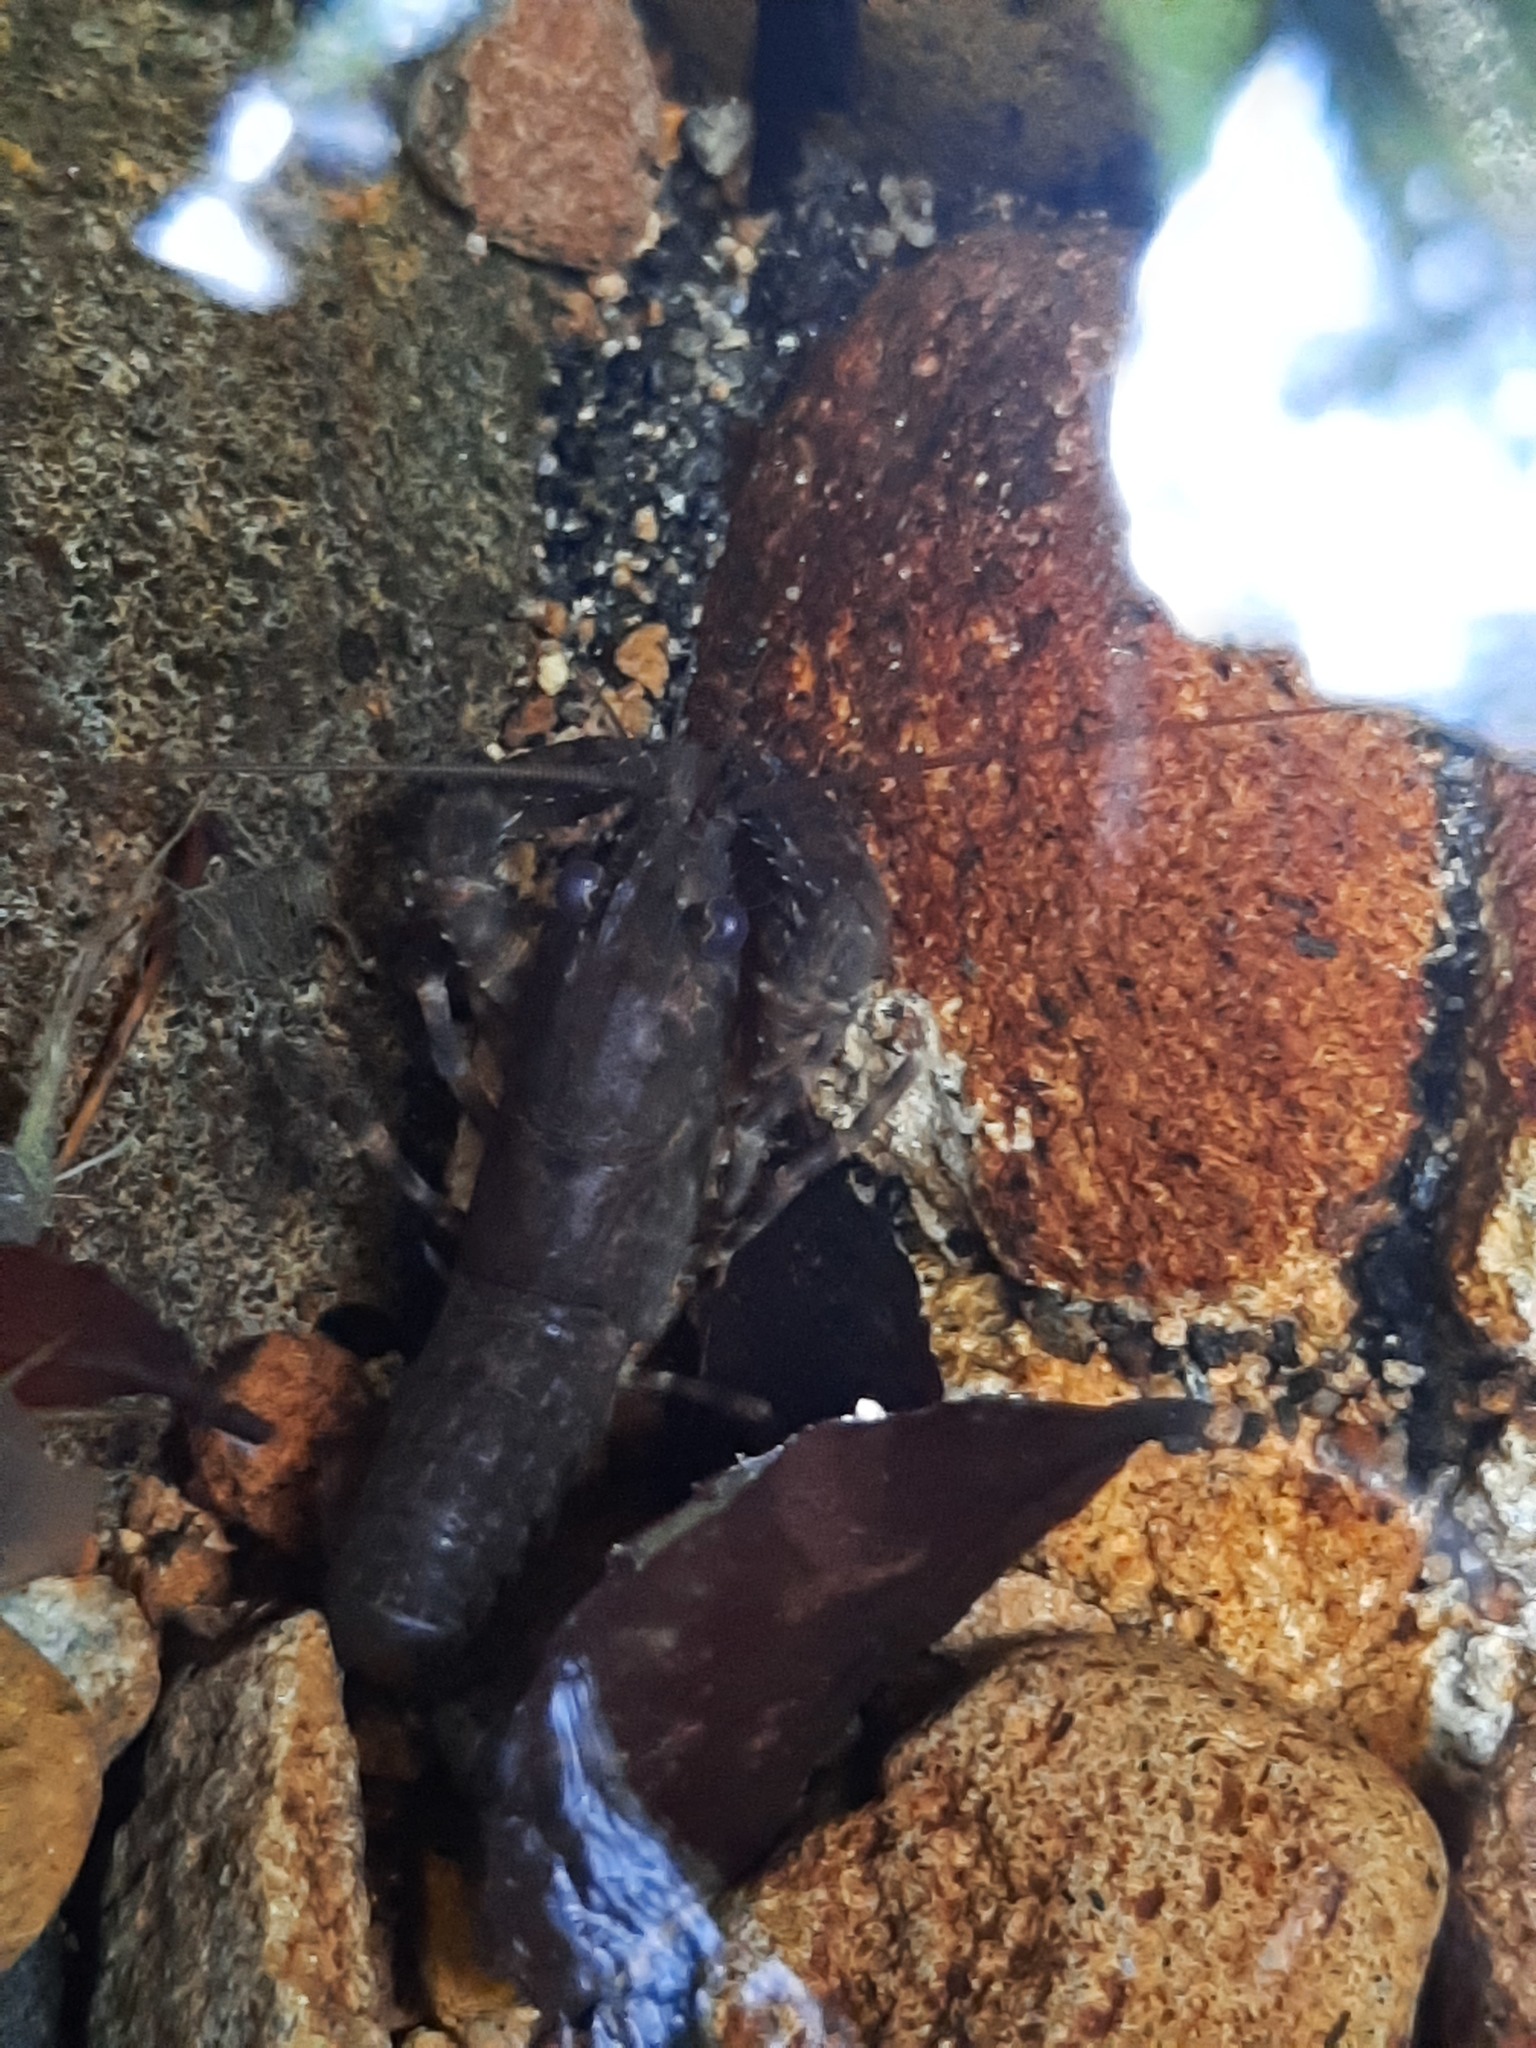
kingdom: Animalia
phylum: Arthropoda
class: Malacostraca
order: Decapoda
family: Parastacidae
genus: Paranephrops
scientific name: Paranephrops planifrons
